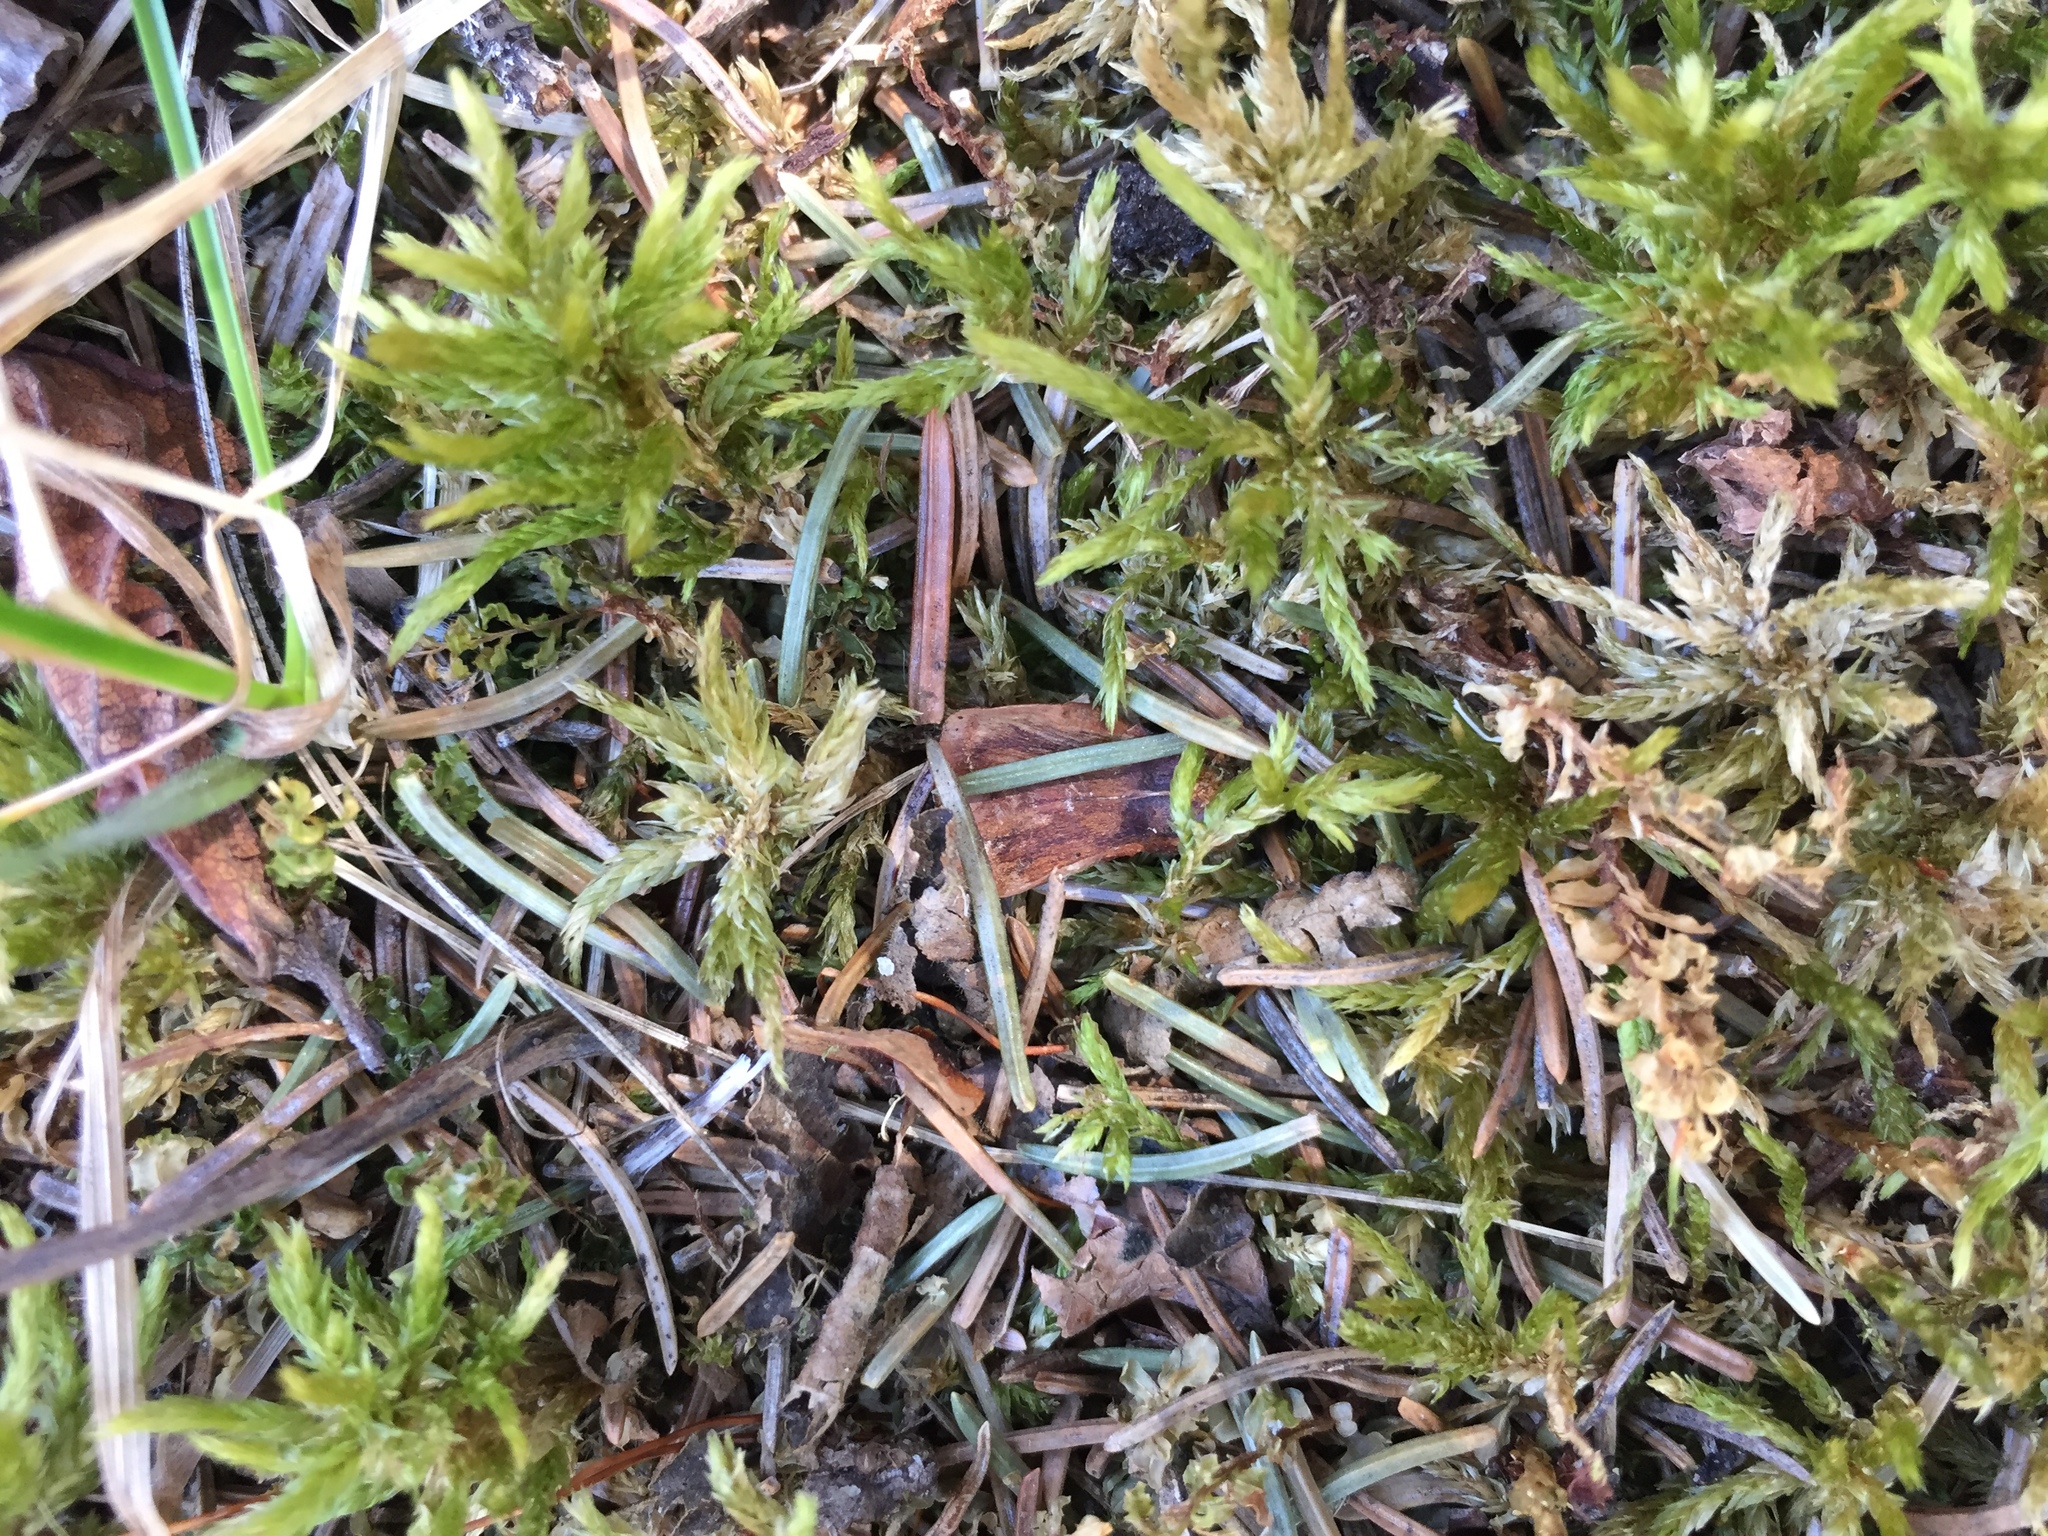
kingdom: Plantae
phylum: Bryophyta
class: Bryopsida
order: Hypnales
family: Climaciaceae
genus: Climacium
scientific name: Climacium dendroides
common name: Northern tree moss
